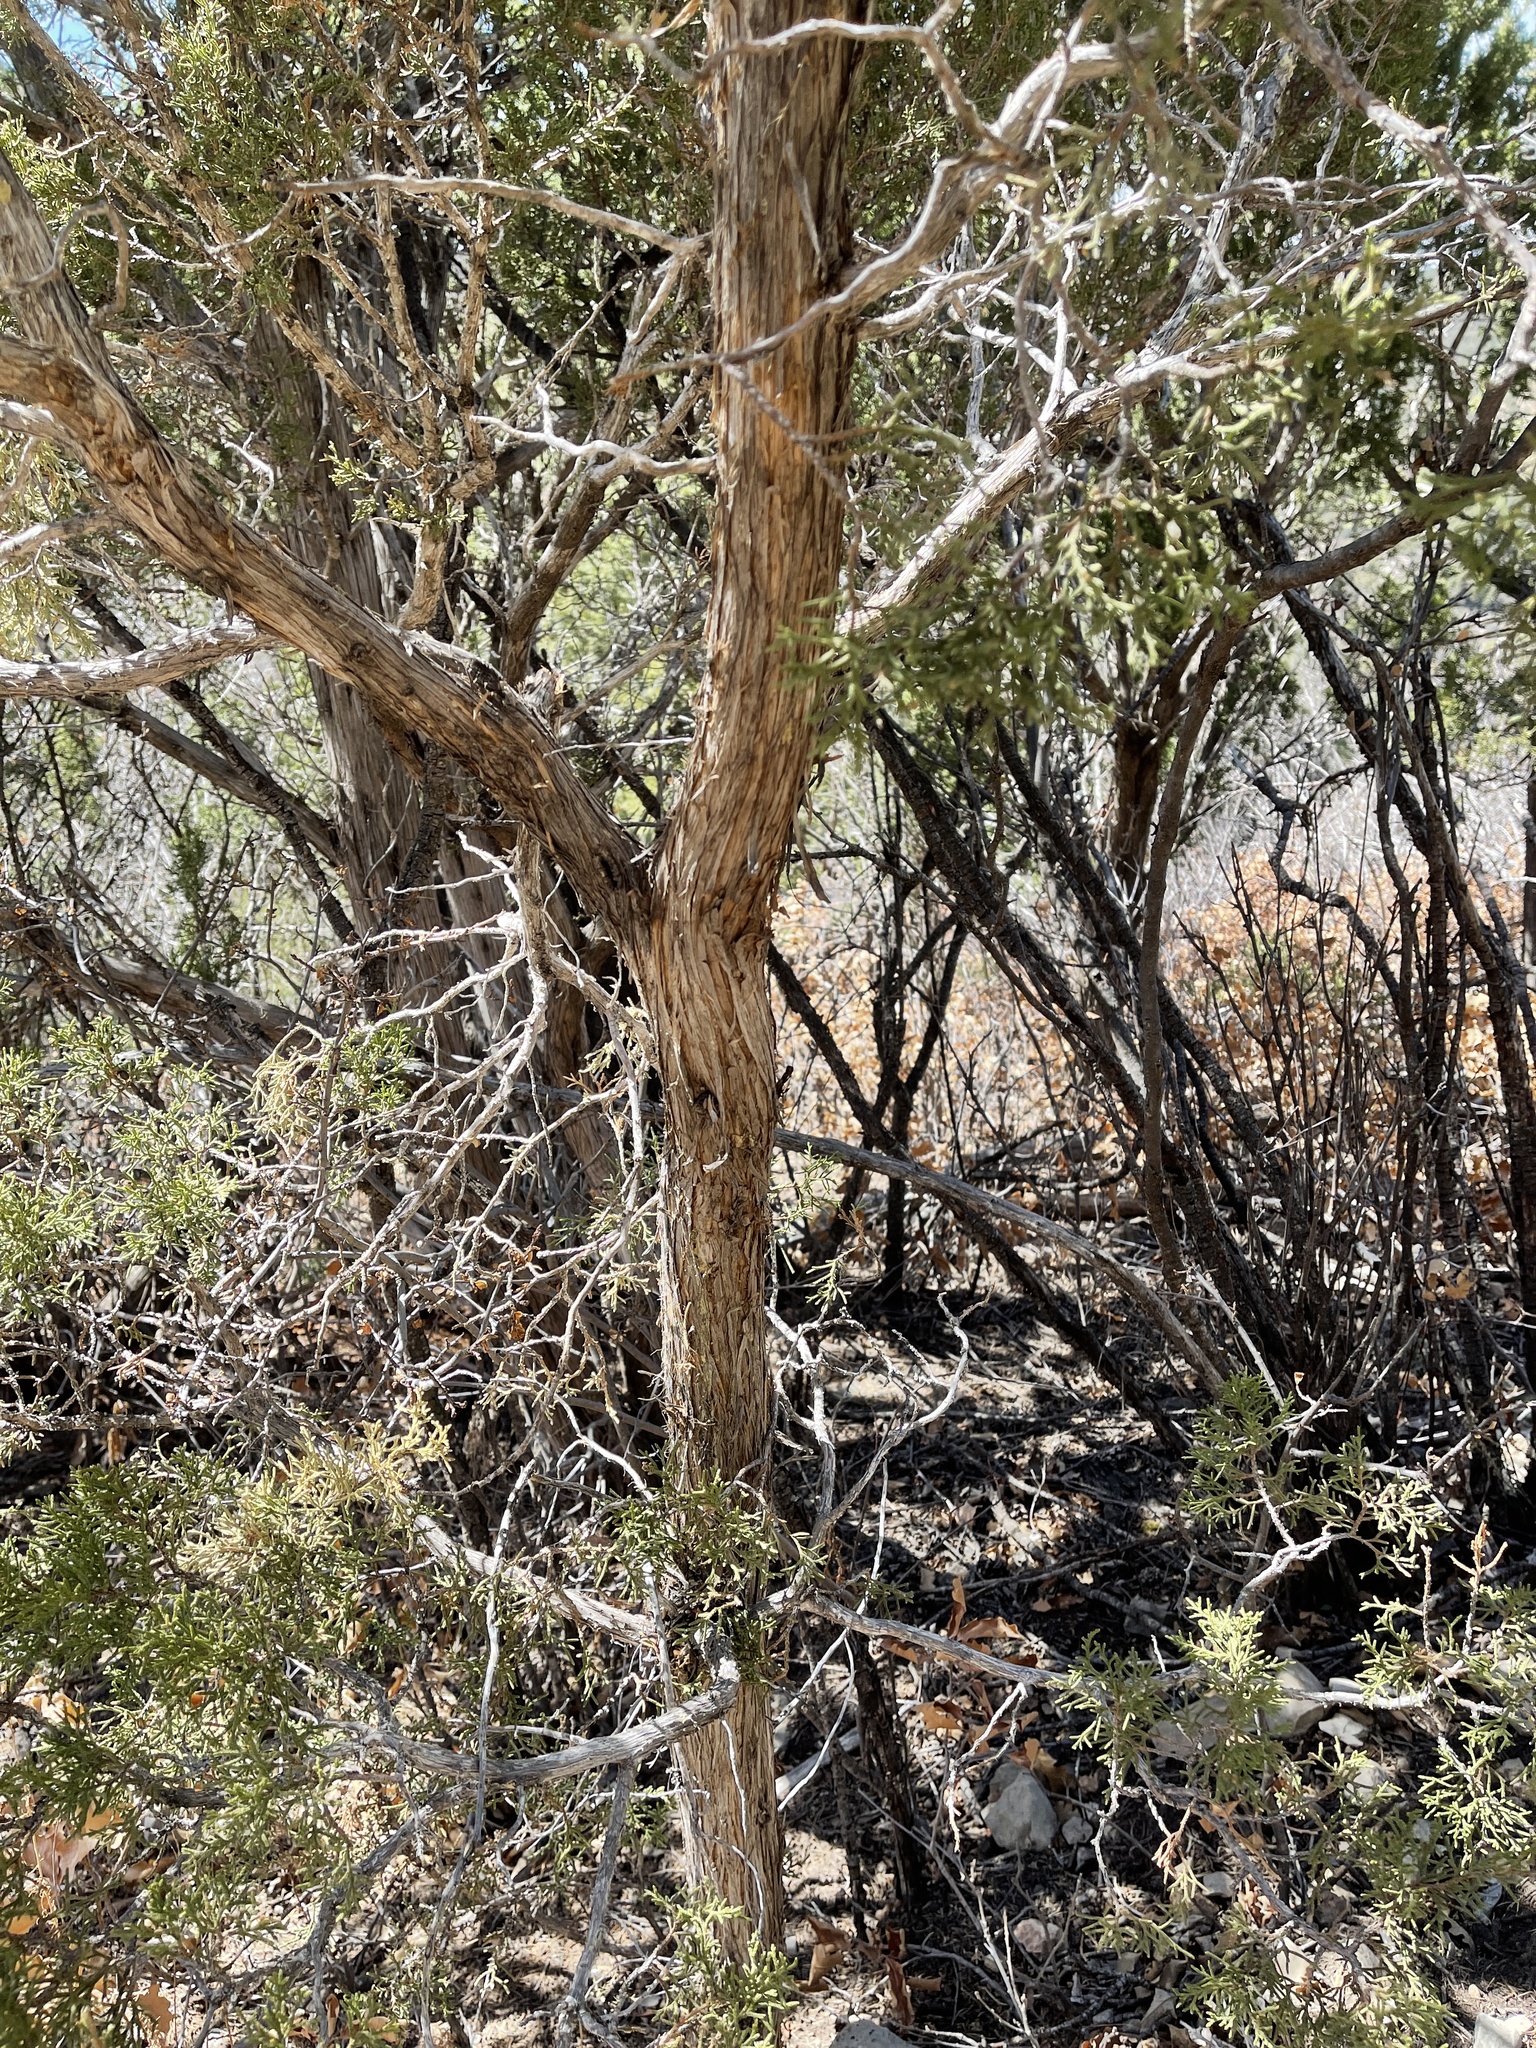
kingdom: Plantae
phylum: Tracheophyta
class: Pinopsida
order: Pinales
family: Cupressaceae
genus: Juniperus
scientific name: Juniperus monosperma
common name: One-seed juniper
